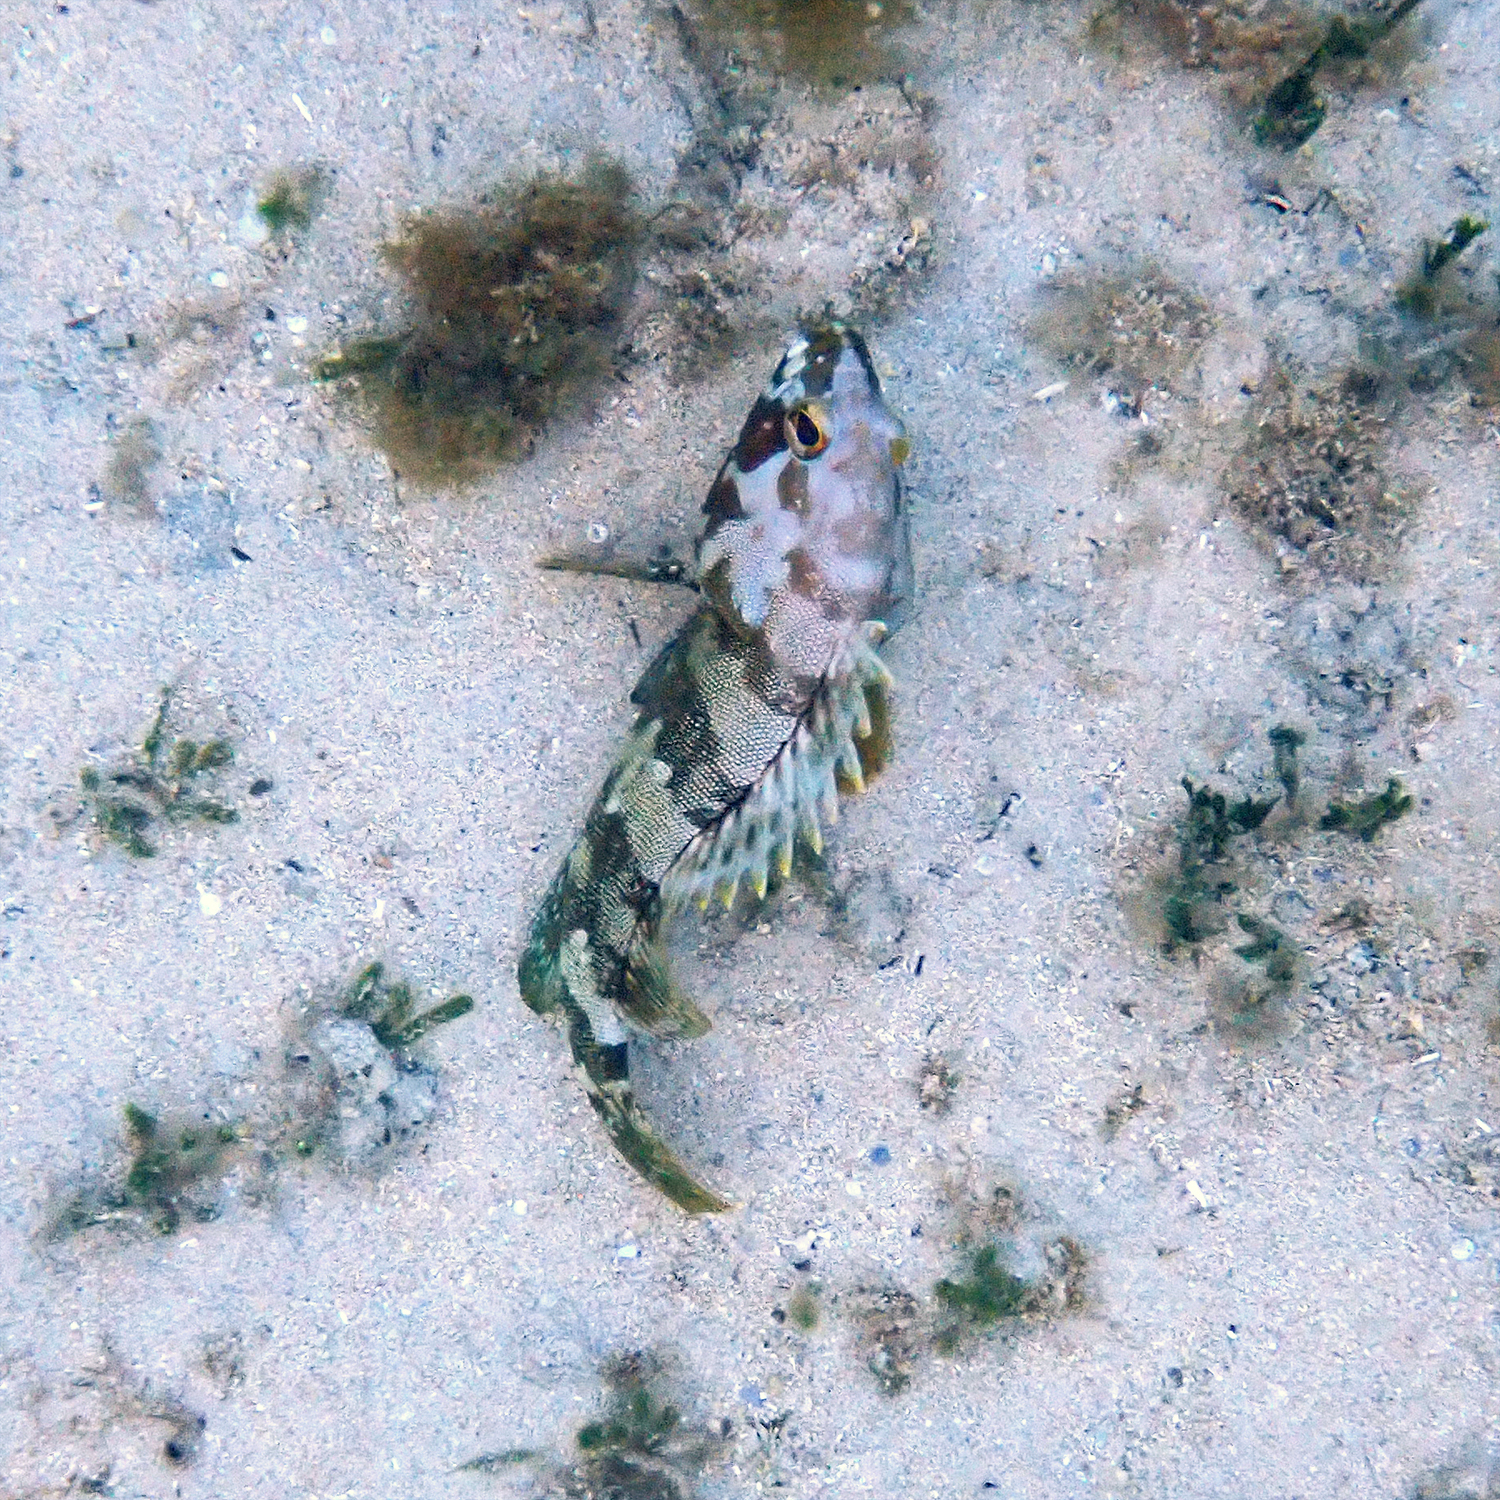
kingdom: Animalia
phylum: Chordata
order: Perciformes
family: Serranidae
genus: Epinephelus
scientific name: Epinephelus rivulatus
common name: Halfmoon grouper
